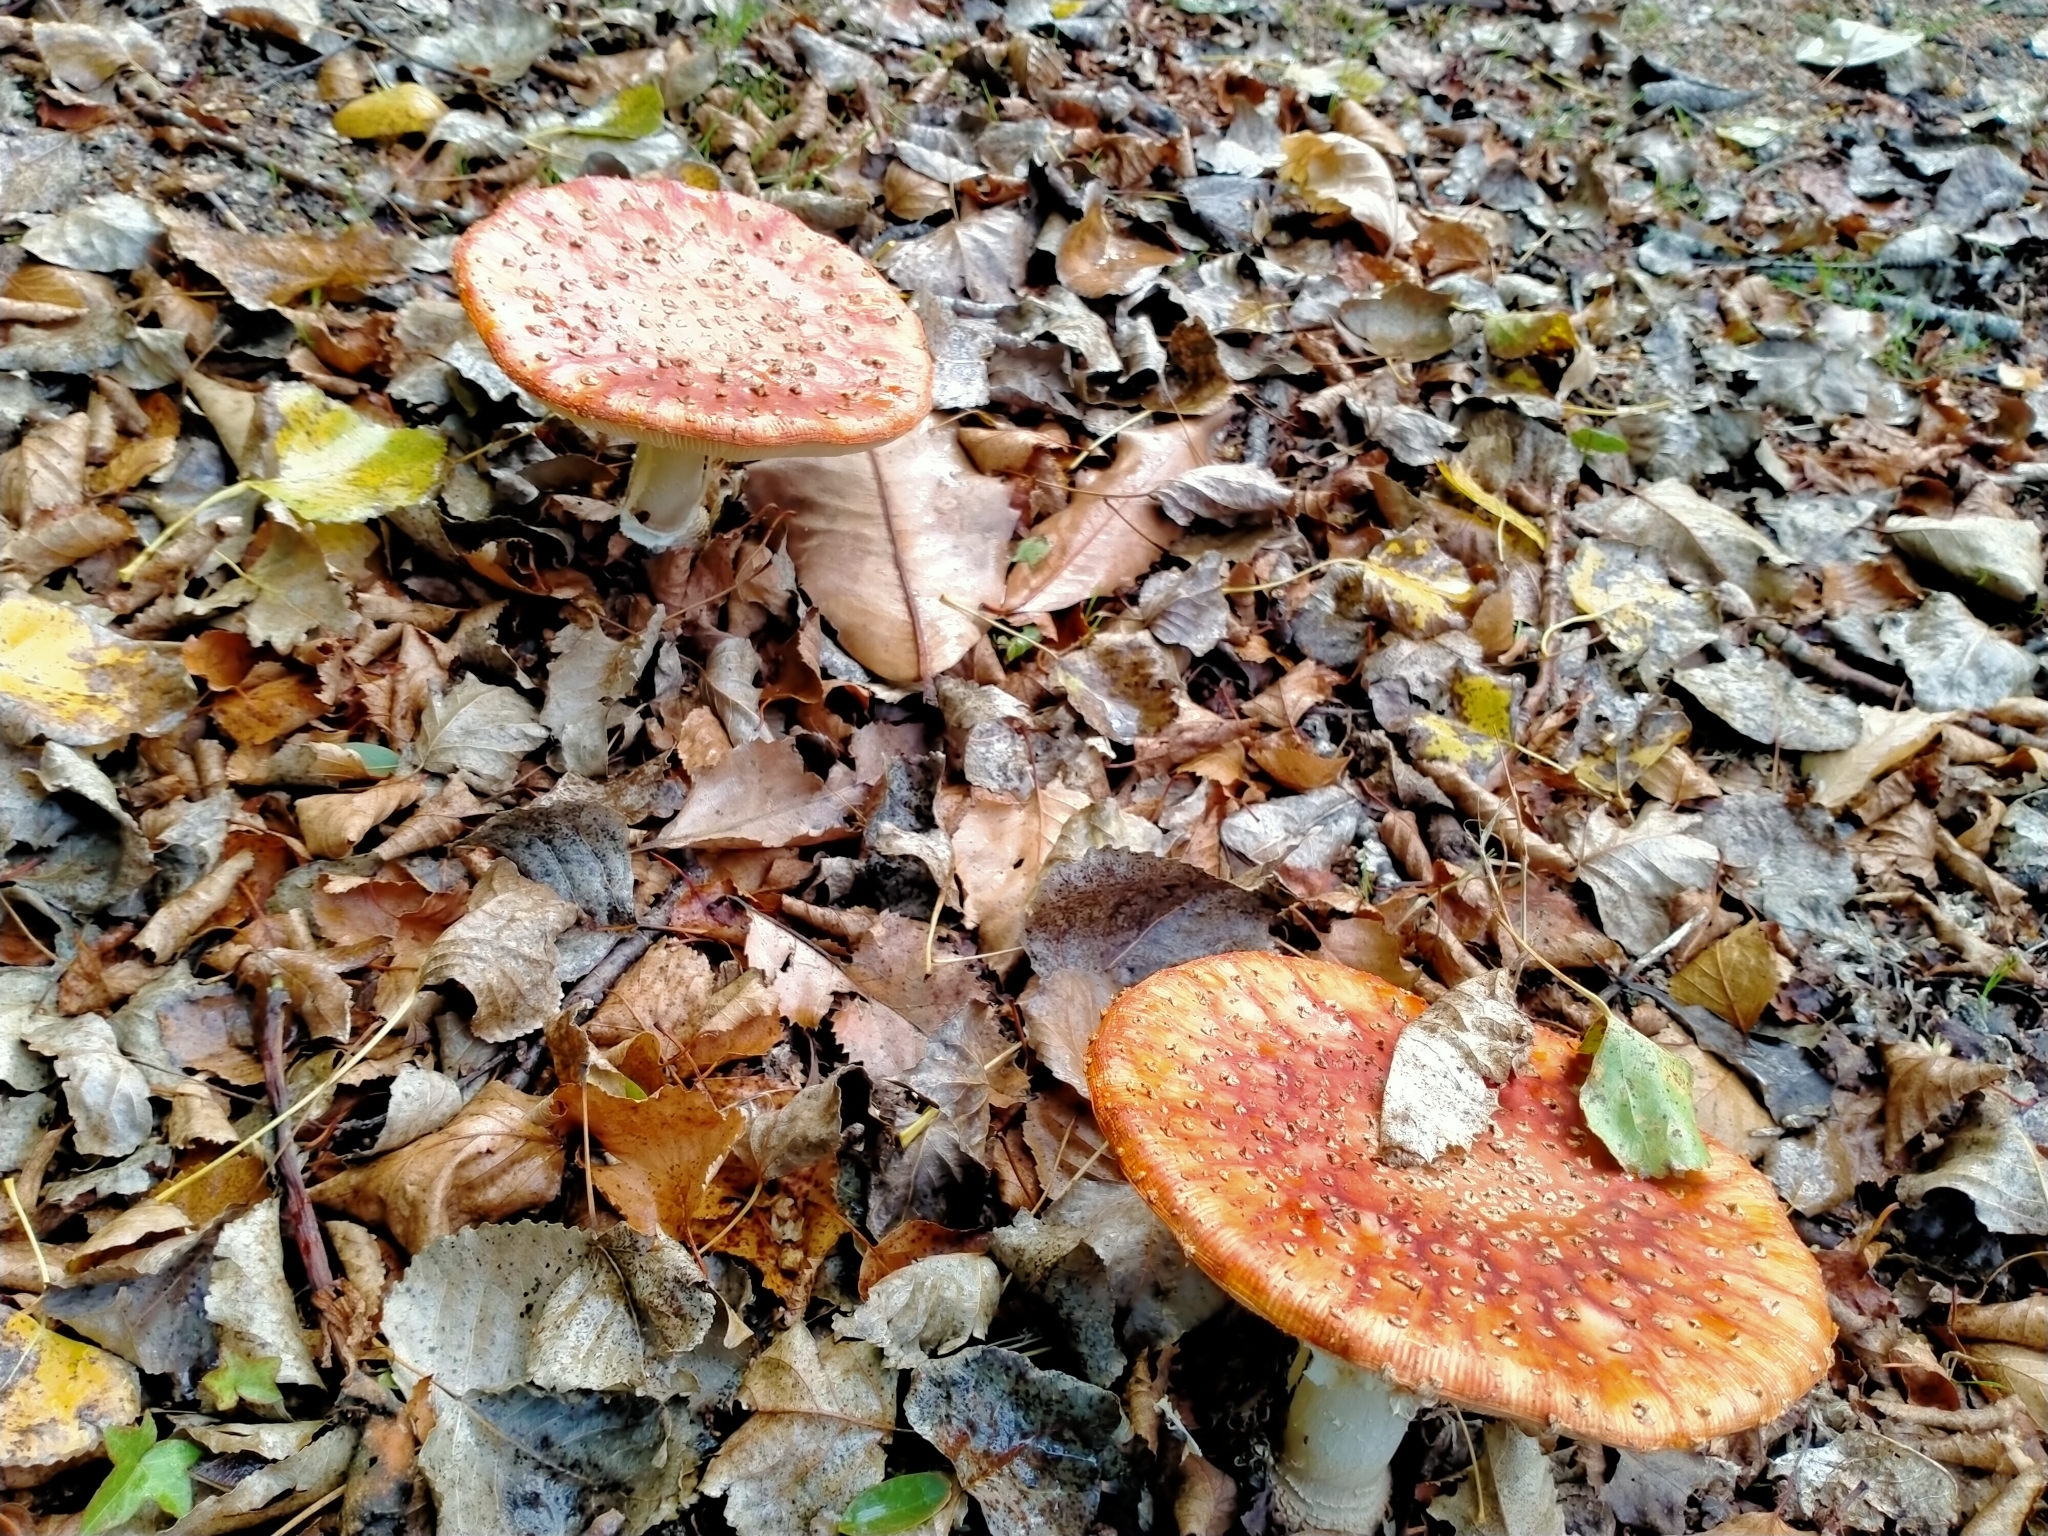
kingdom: Fungi
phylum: Basidiomycota
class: Agaricomycetes
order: Agaricales
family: Amanitaceae
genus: Amanita
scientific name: Amanita muscaria
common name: Fly agaric
